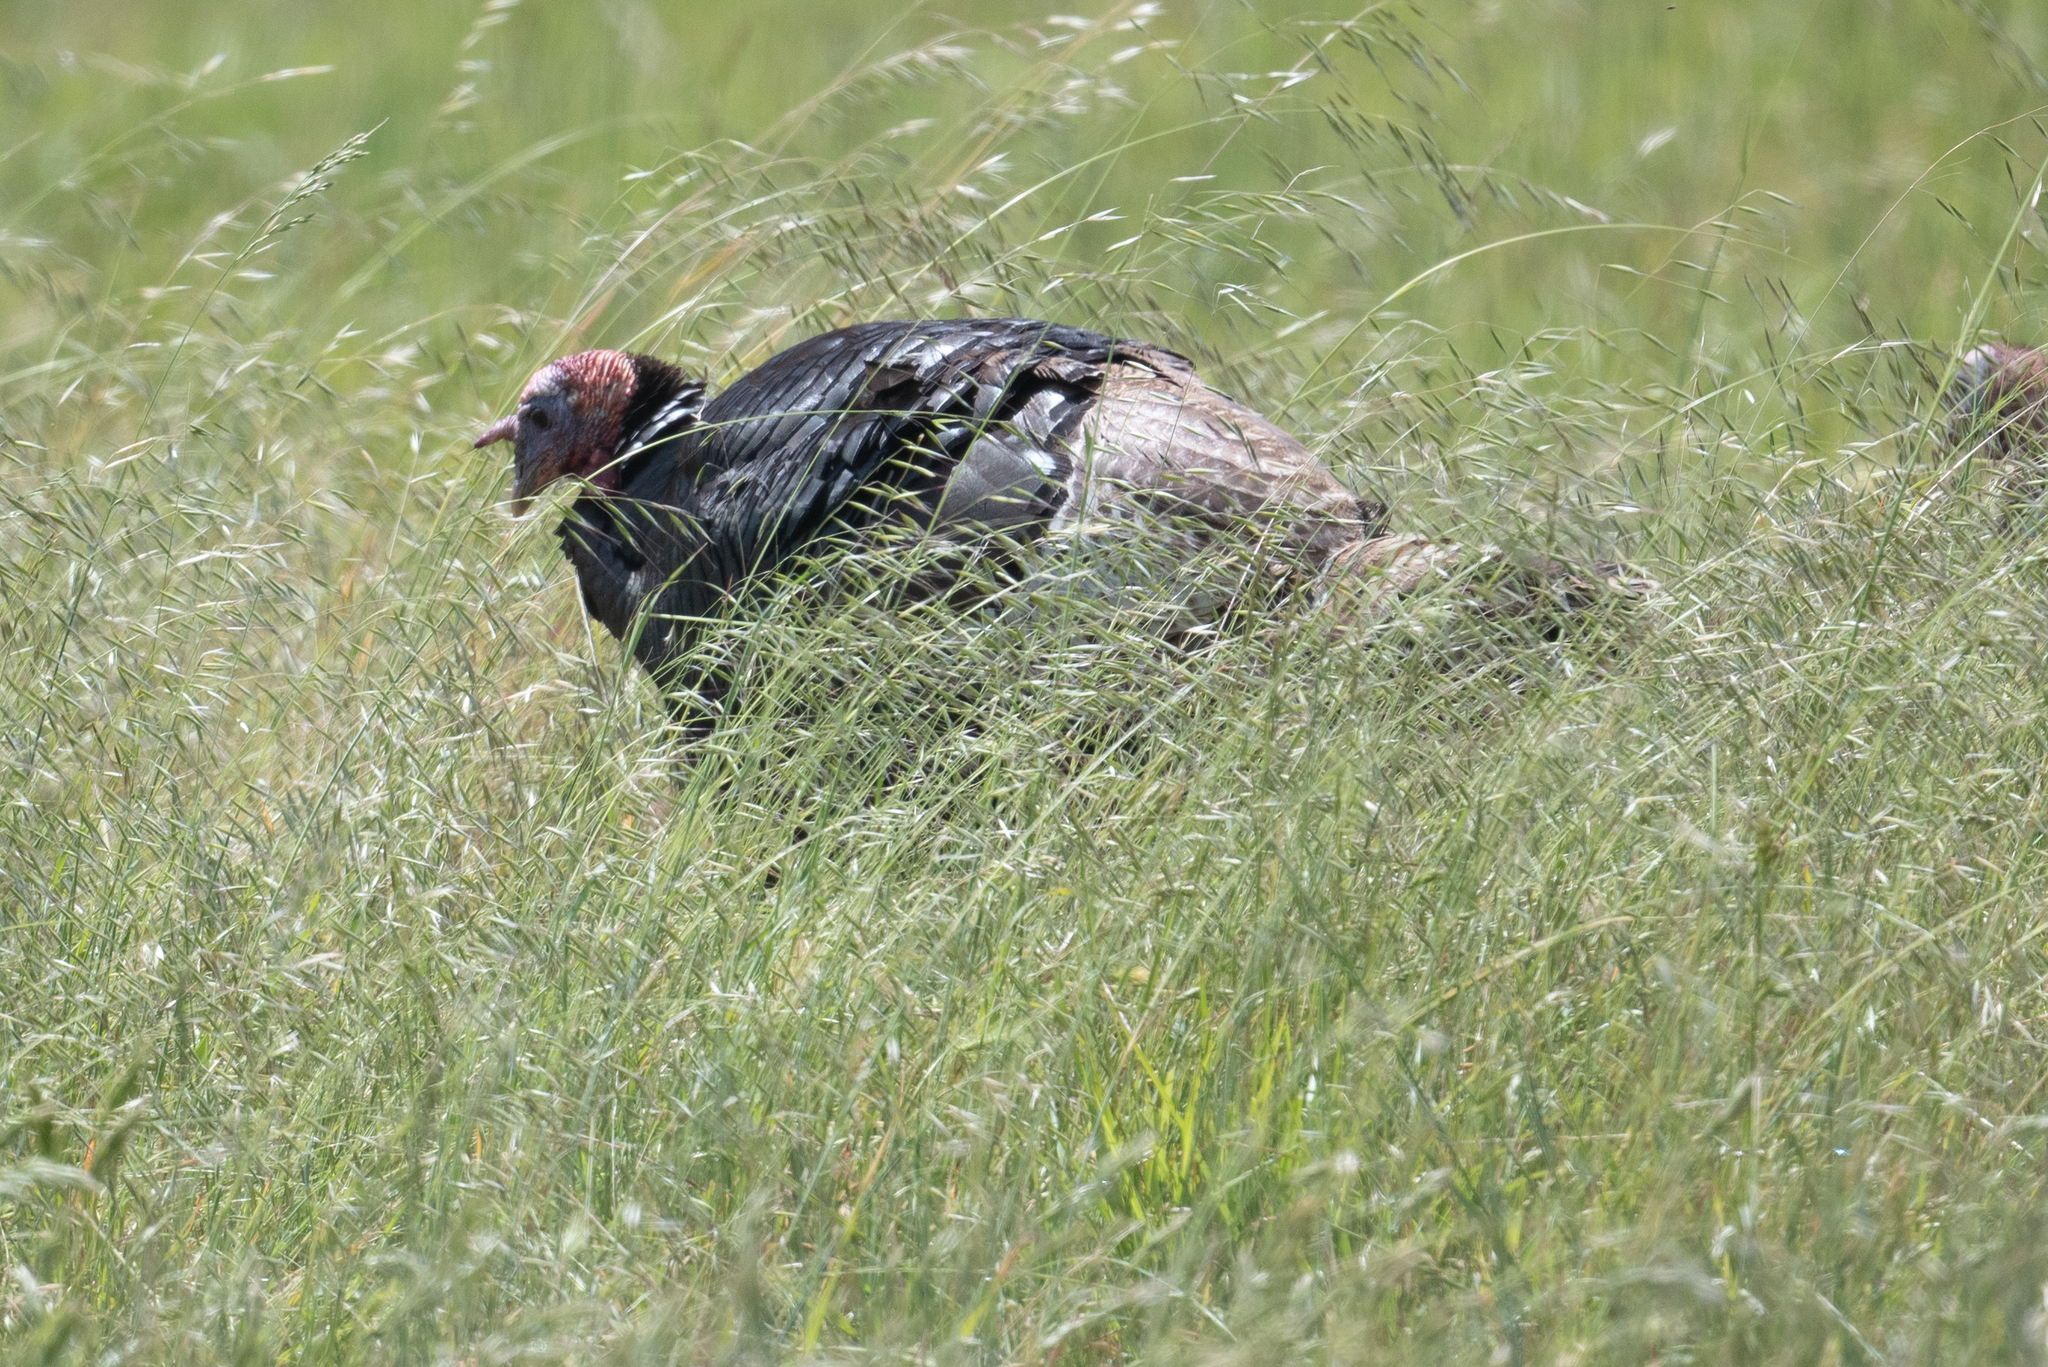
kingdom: Animalia
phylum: Chordata
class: Aves
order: Galliformes
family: Phasianidae
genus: Meleagris
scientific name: Meleagris gallopavo
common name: Wild turkey
